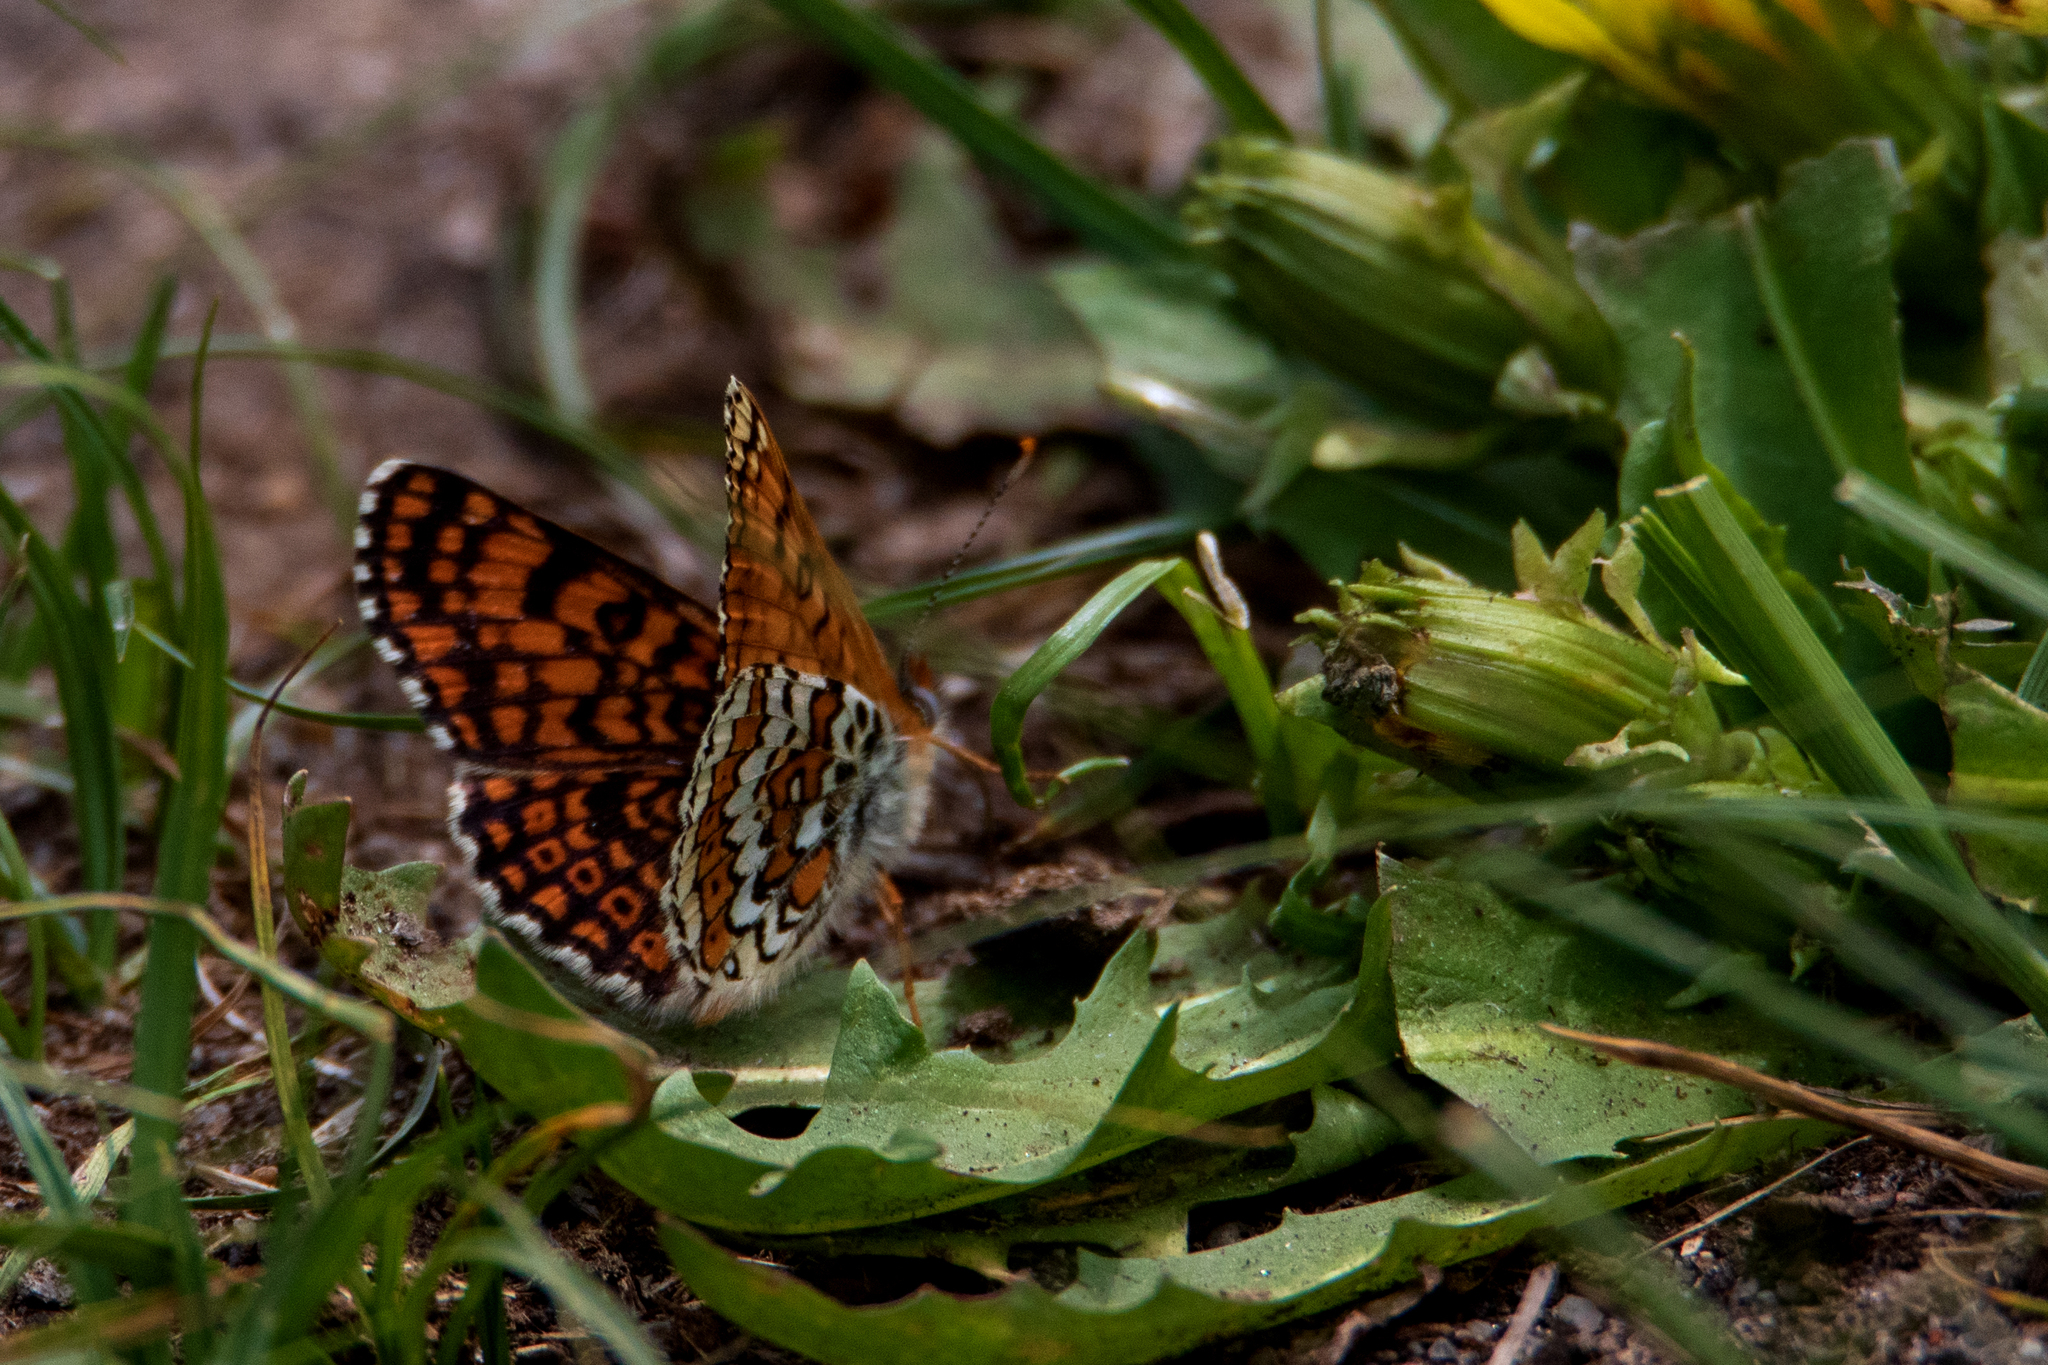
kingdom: Animalia
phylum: Arthropoda
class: Insecta
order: Lepidoptera
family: Nymphalidae
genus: Melitaea
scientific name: Melitaea cinxia
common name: Glanville fritillary
